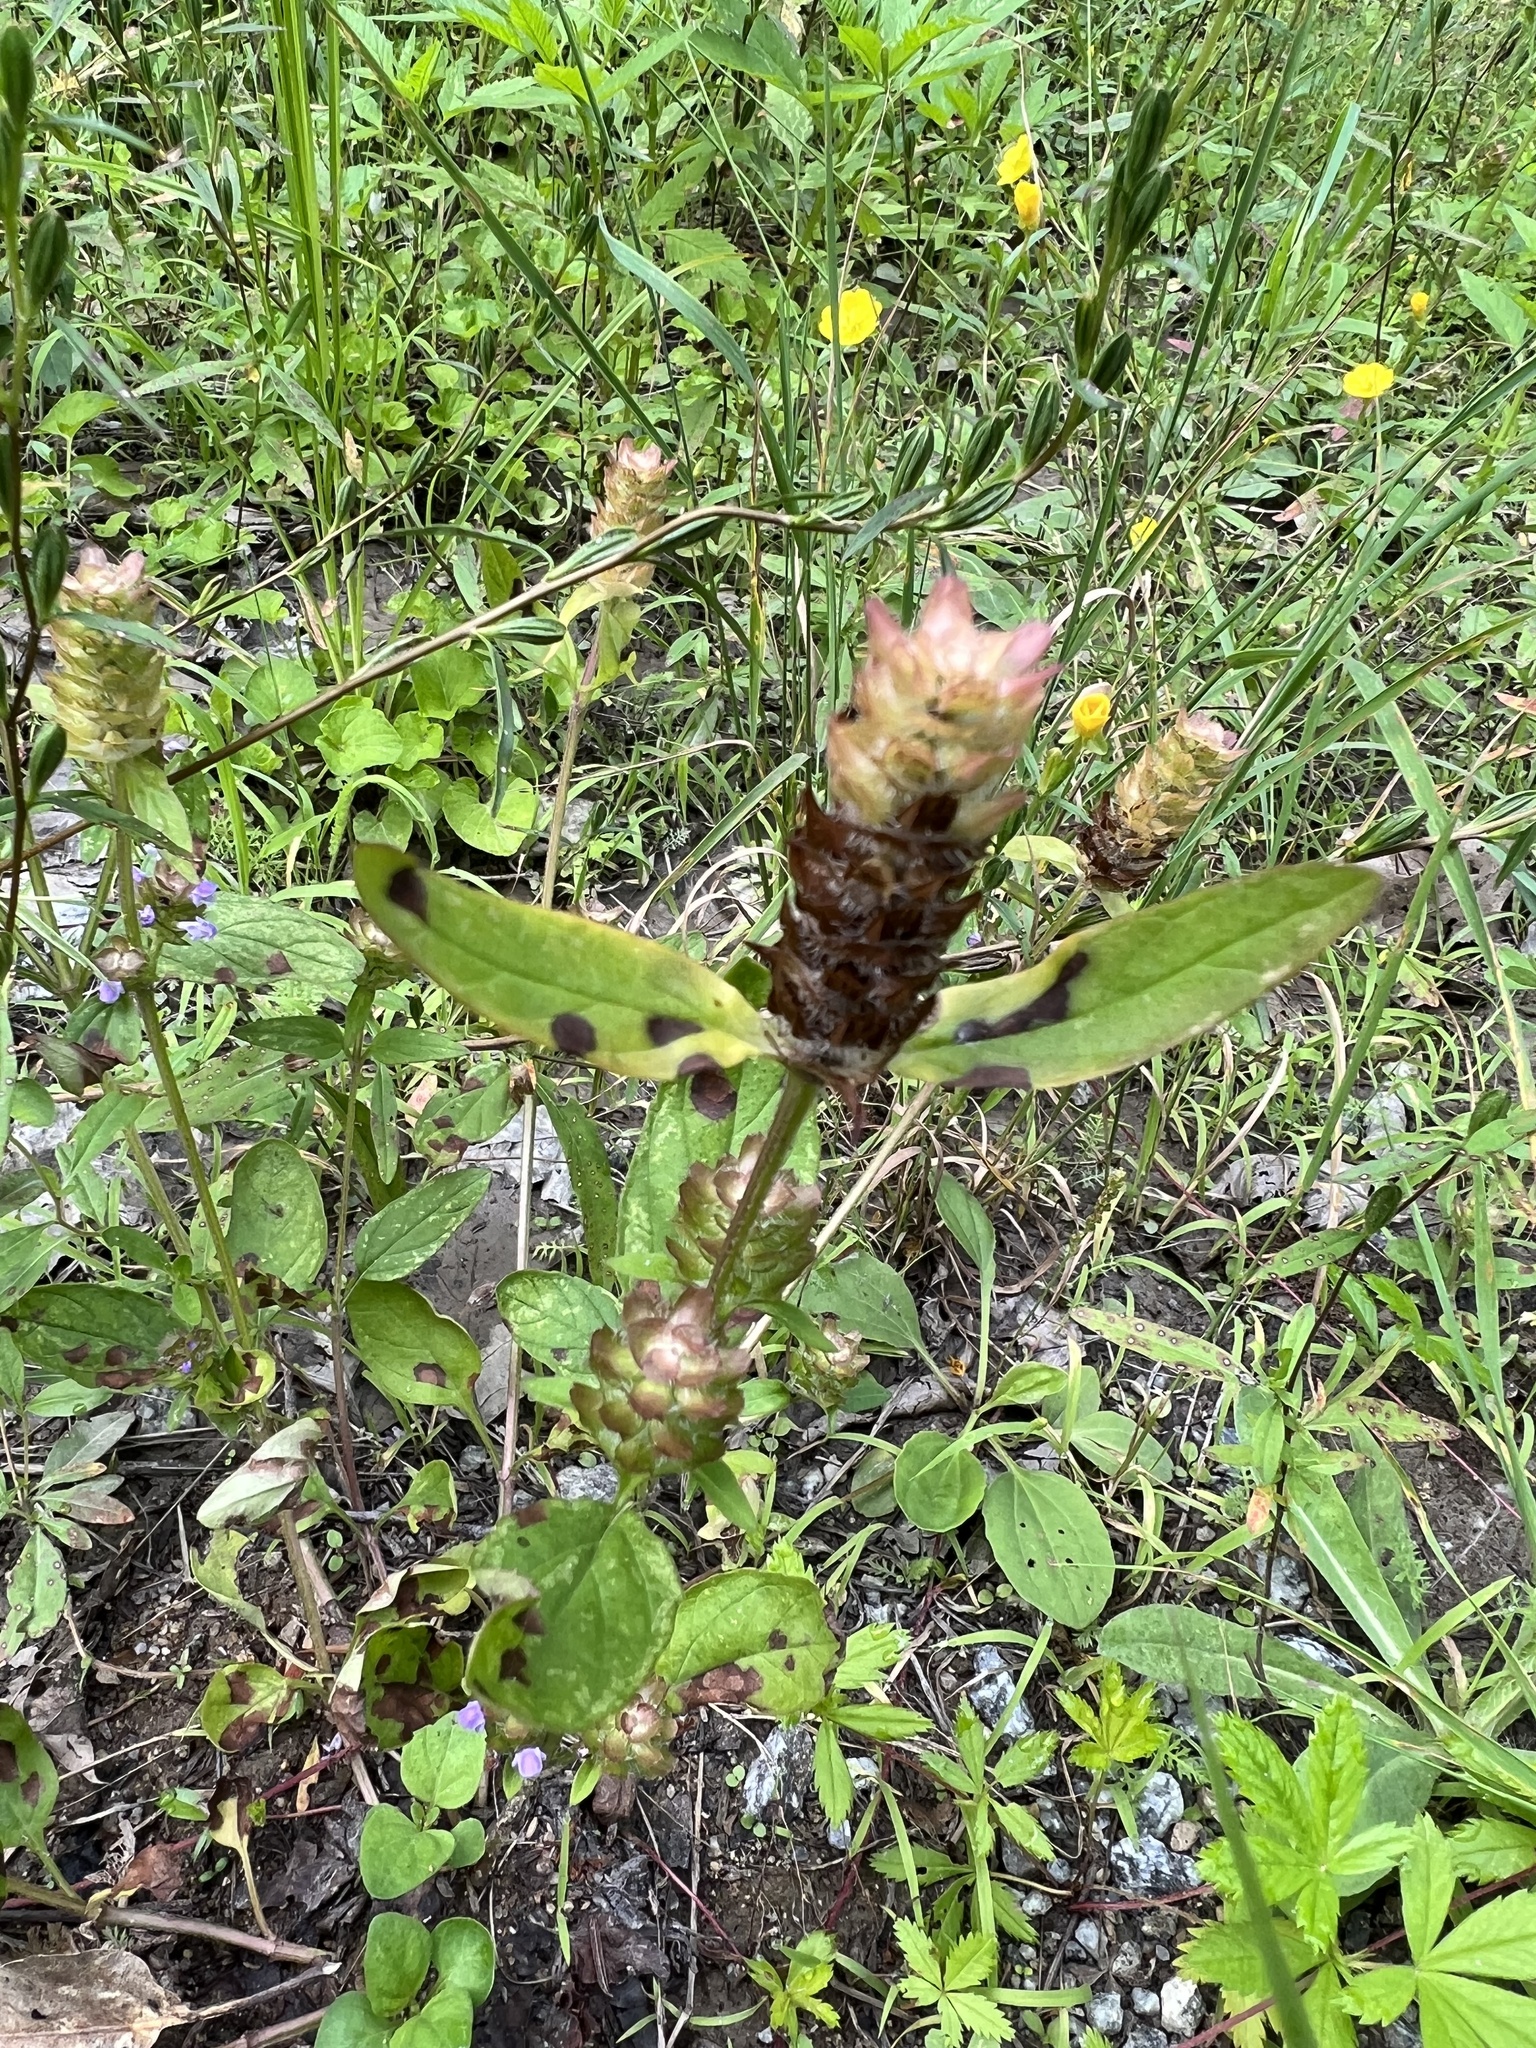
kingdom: Plantae
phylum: Tracheophyta
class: Magnoliopsida
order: Lamiales
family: Lamiaceae
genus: Prunella
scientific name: Prunella vulgaris
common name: Heal-all
